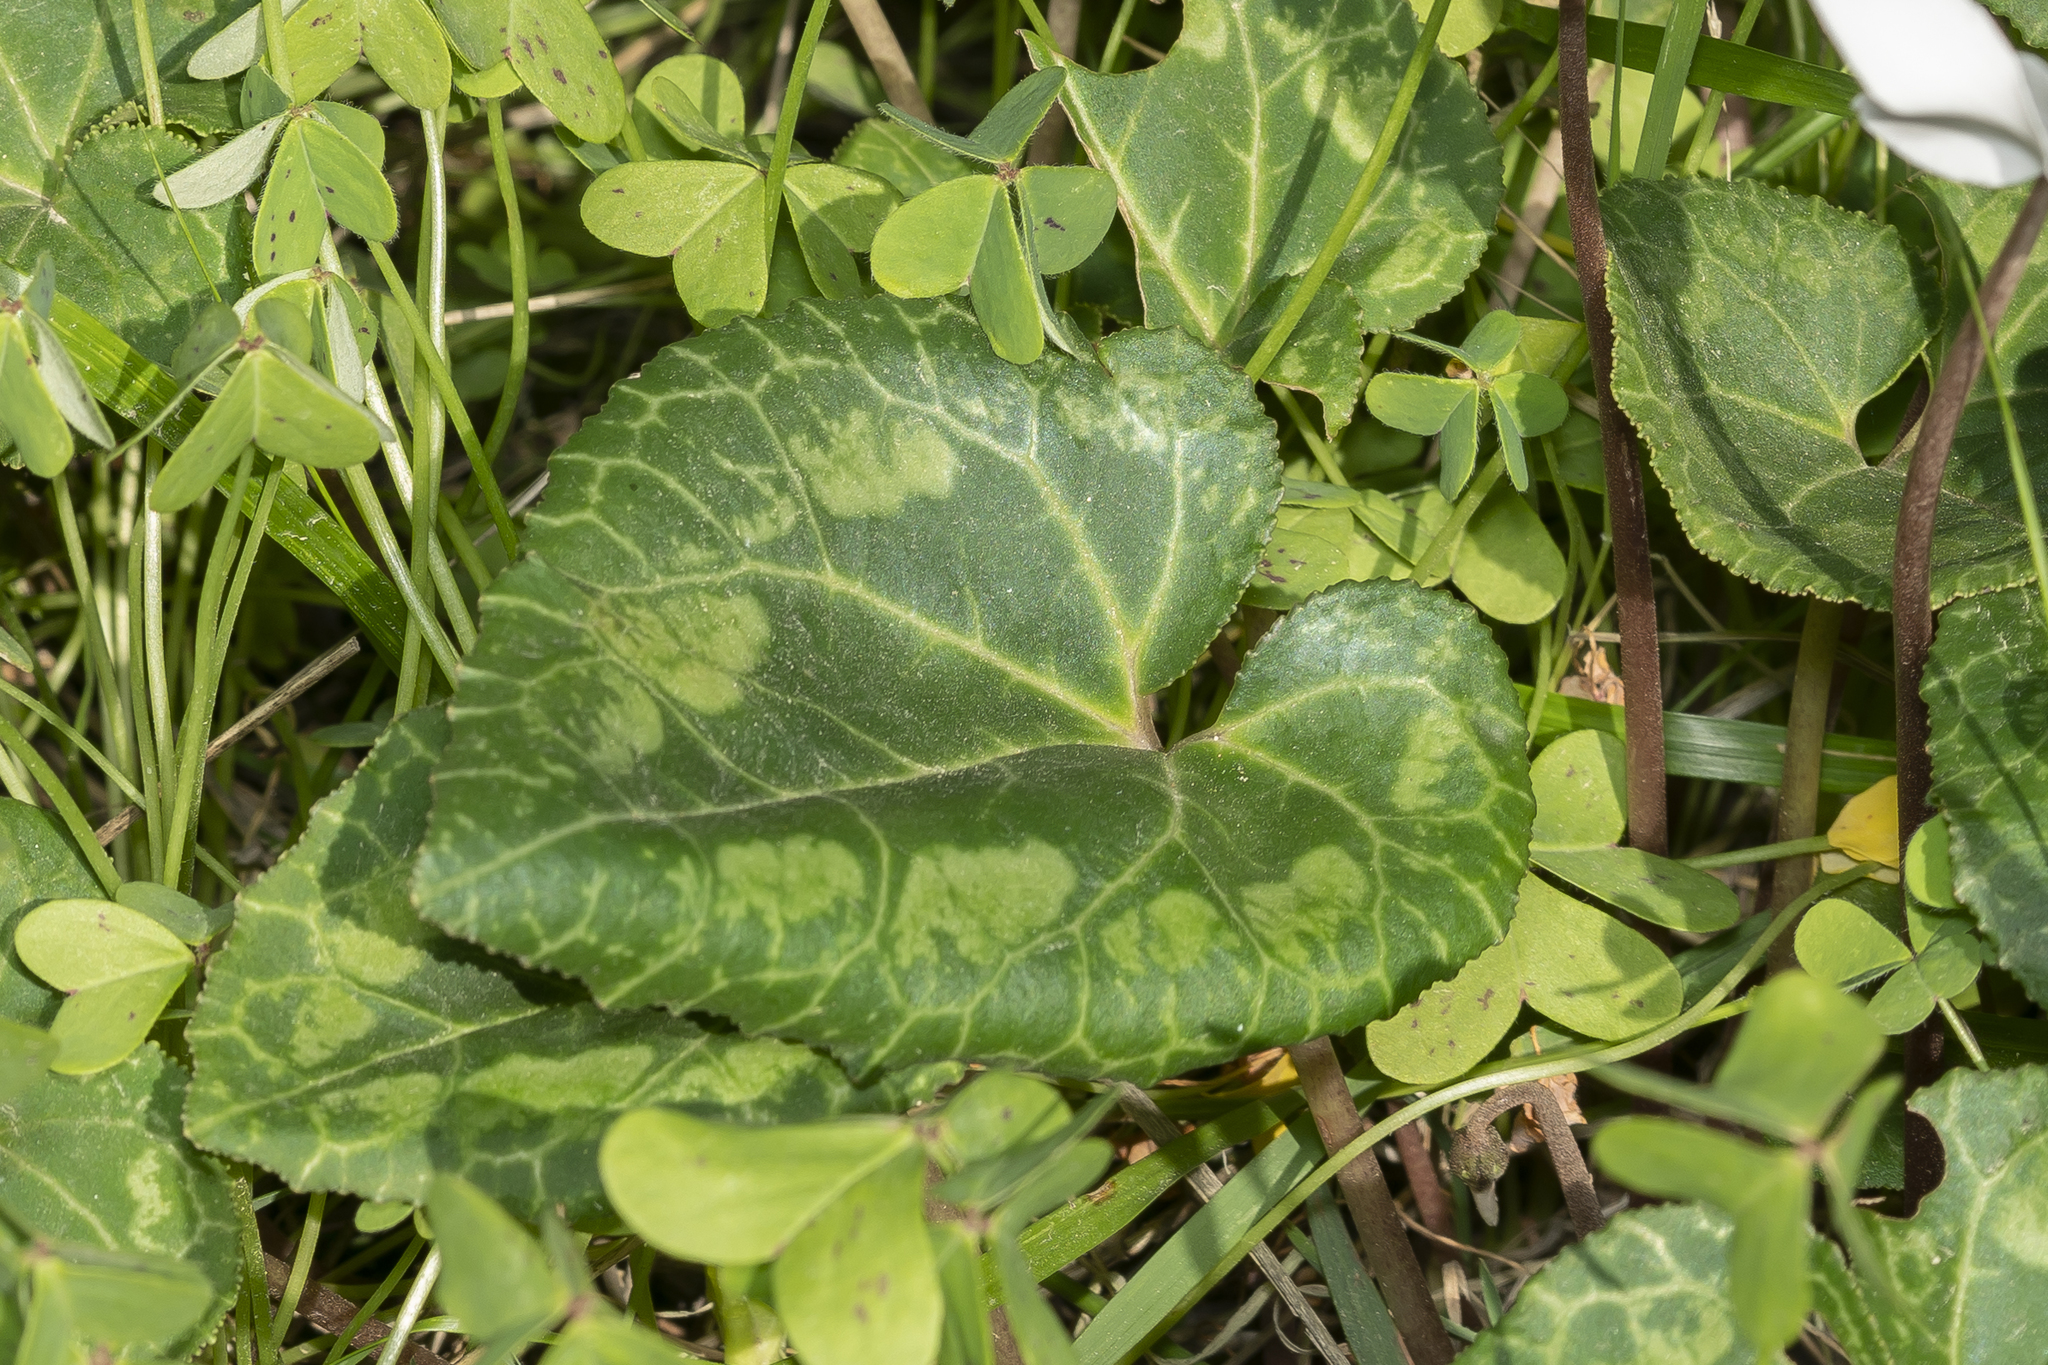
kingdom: Plantae
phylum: Tracheophyta
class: Magnoliopsida
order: Ericales
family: Primulaceae
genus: Cyclamen
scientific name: Cyclamen persicum
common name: Florist's cyclamen
